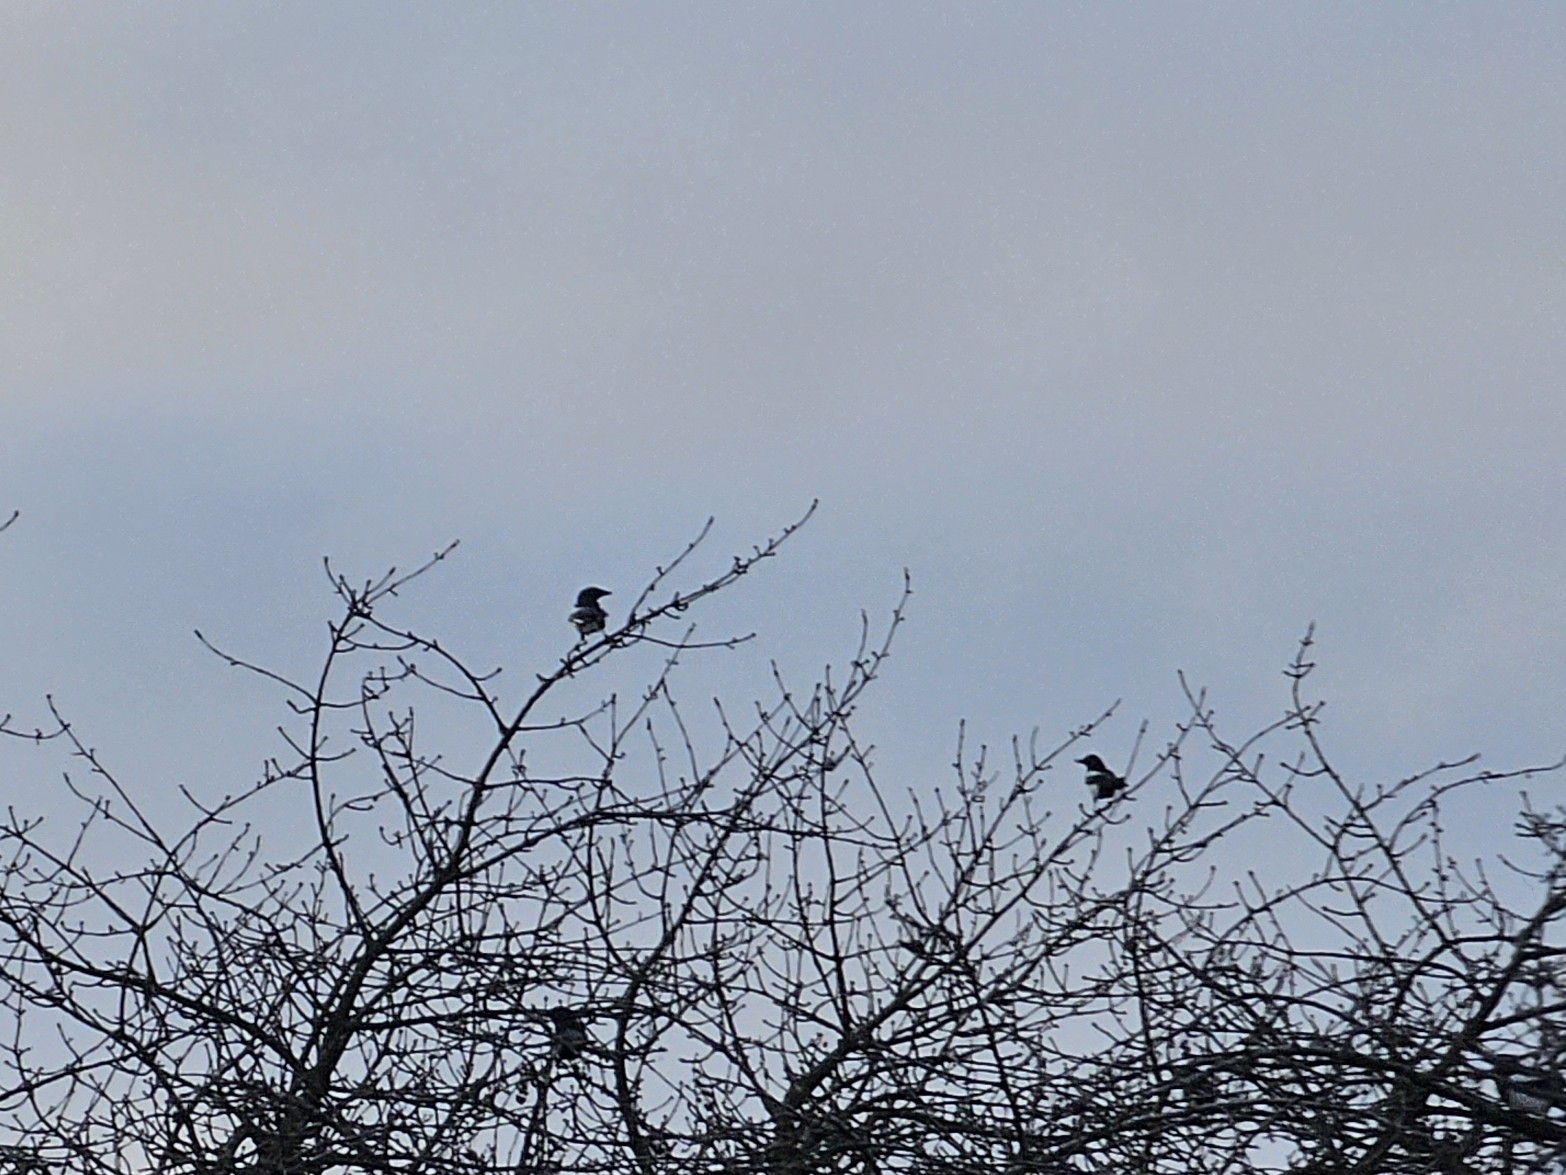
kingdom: Animalia
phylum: Chordata
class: Aves
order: Passeriformes
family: Corvidae
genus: Pica
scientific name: Pica pica
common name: Eurasian magpie
